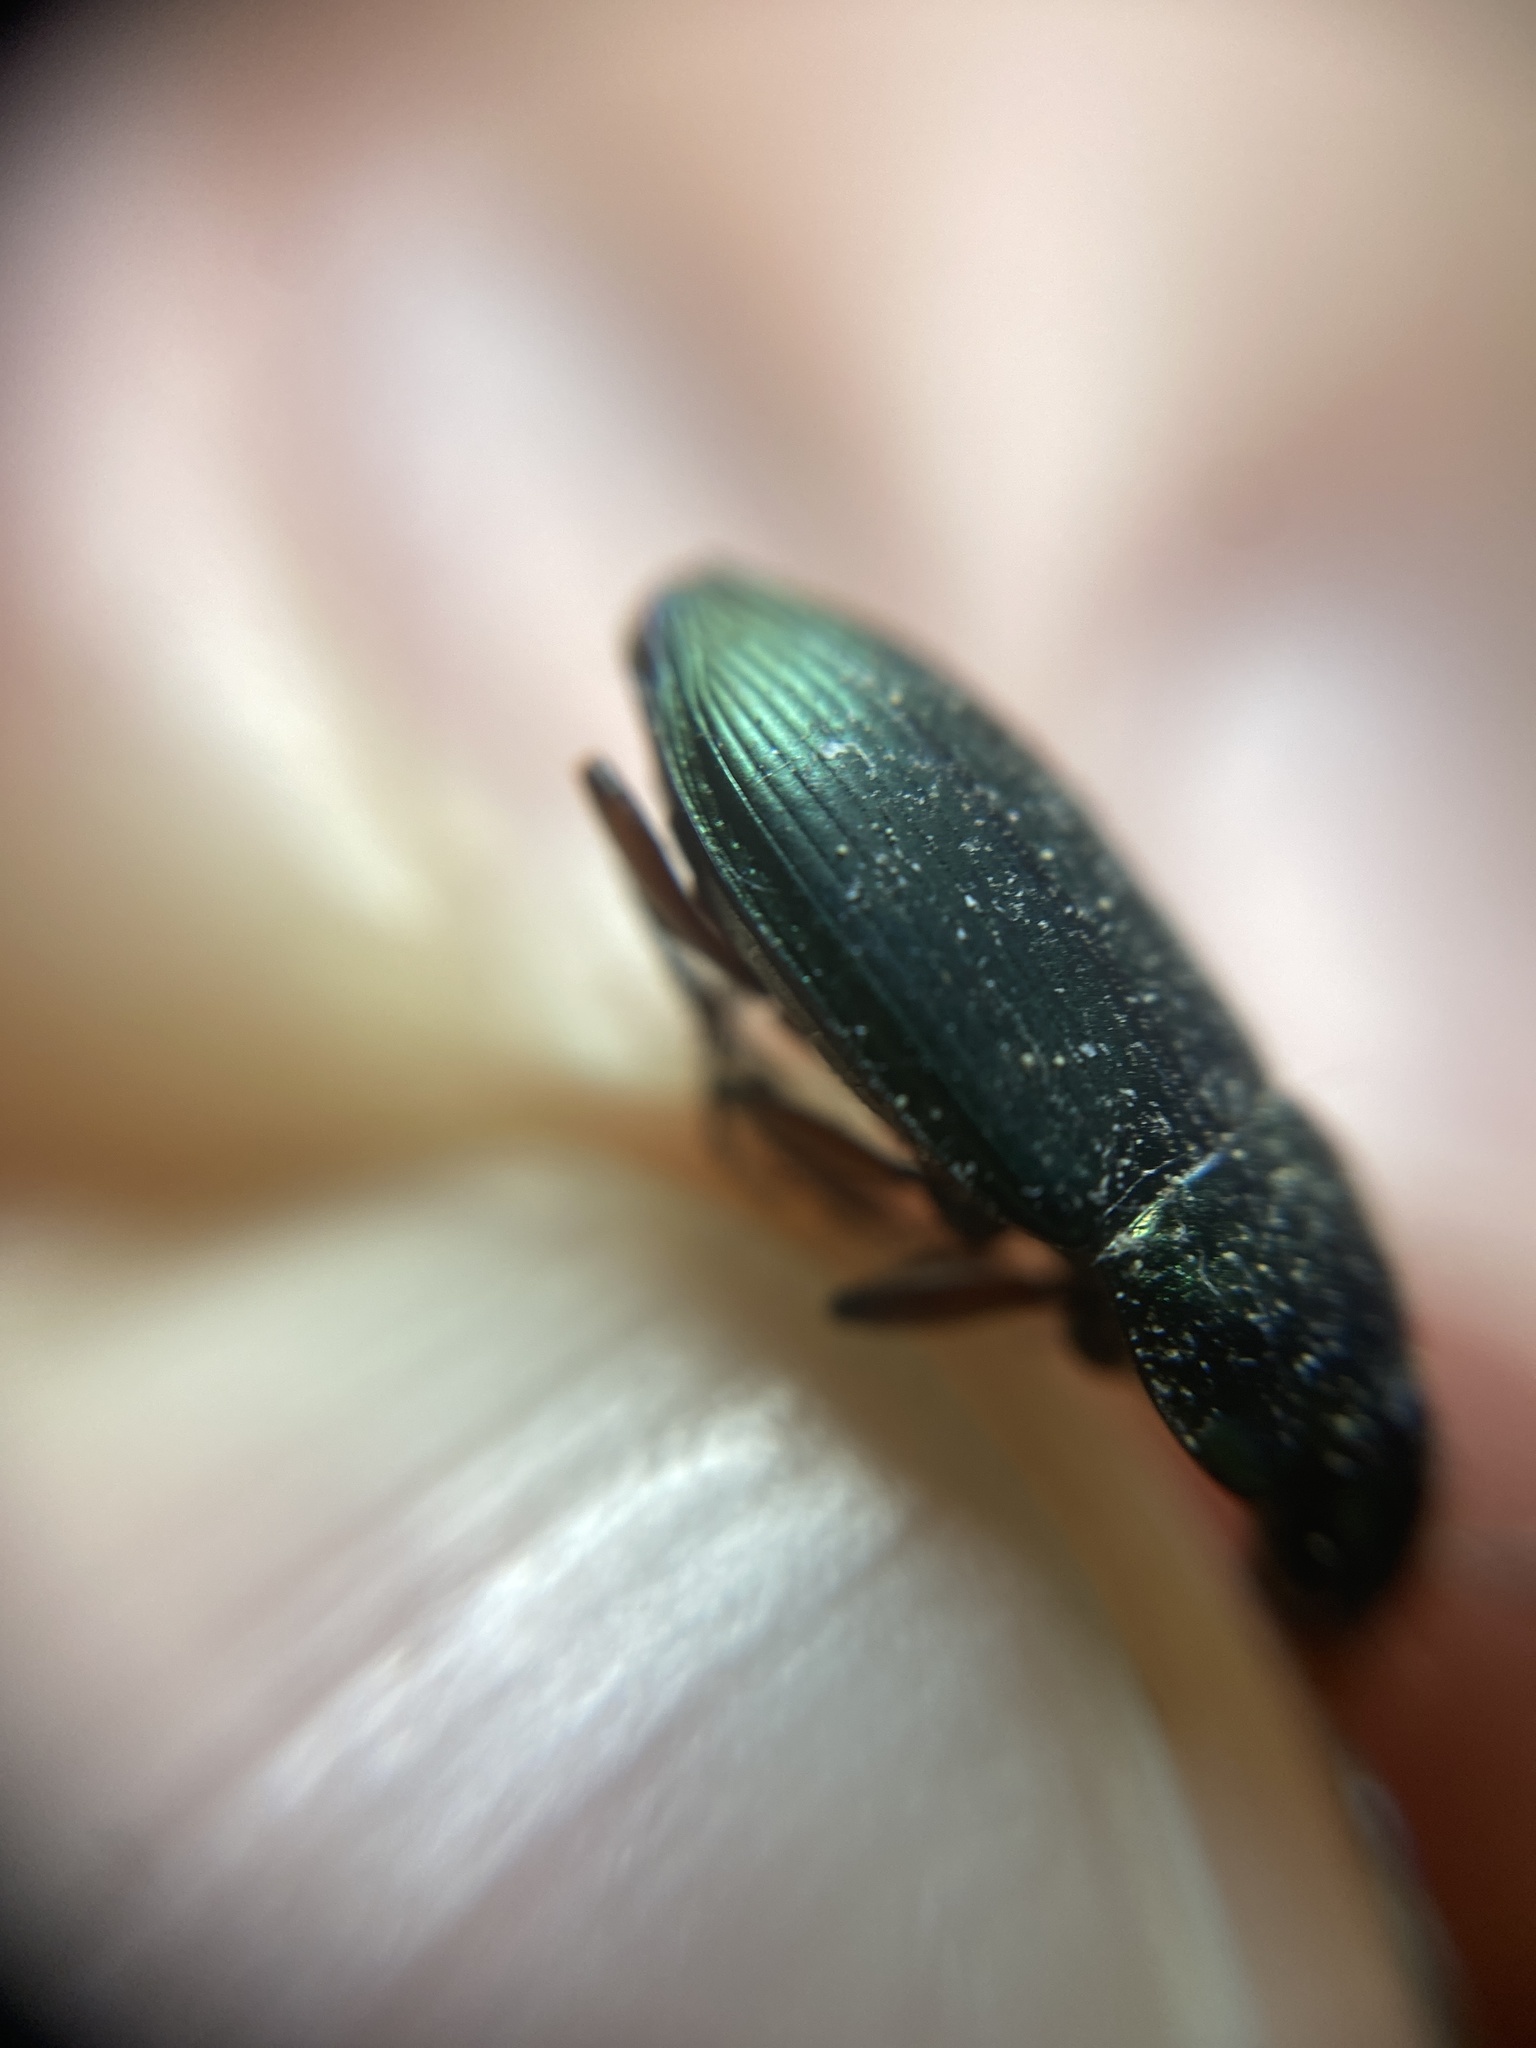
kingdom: Animalia
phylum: Arthropoda
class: Insecta
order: Coleoptera
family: Carabidae
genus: Poecilus
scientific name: Poecilus versicolor
